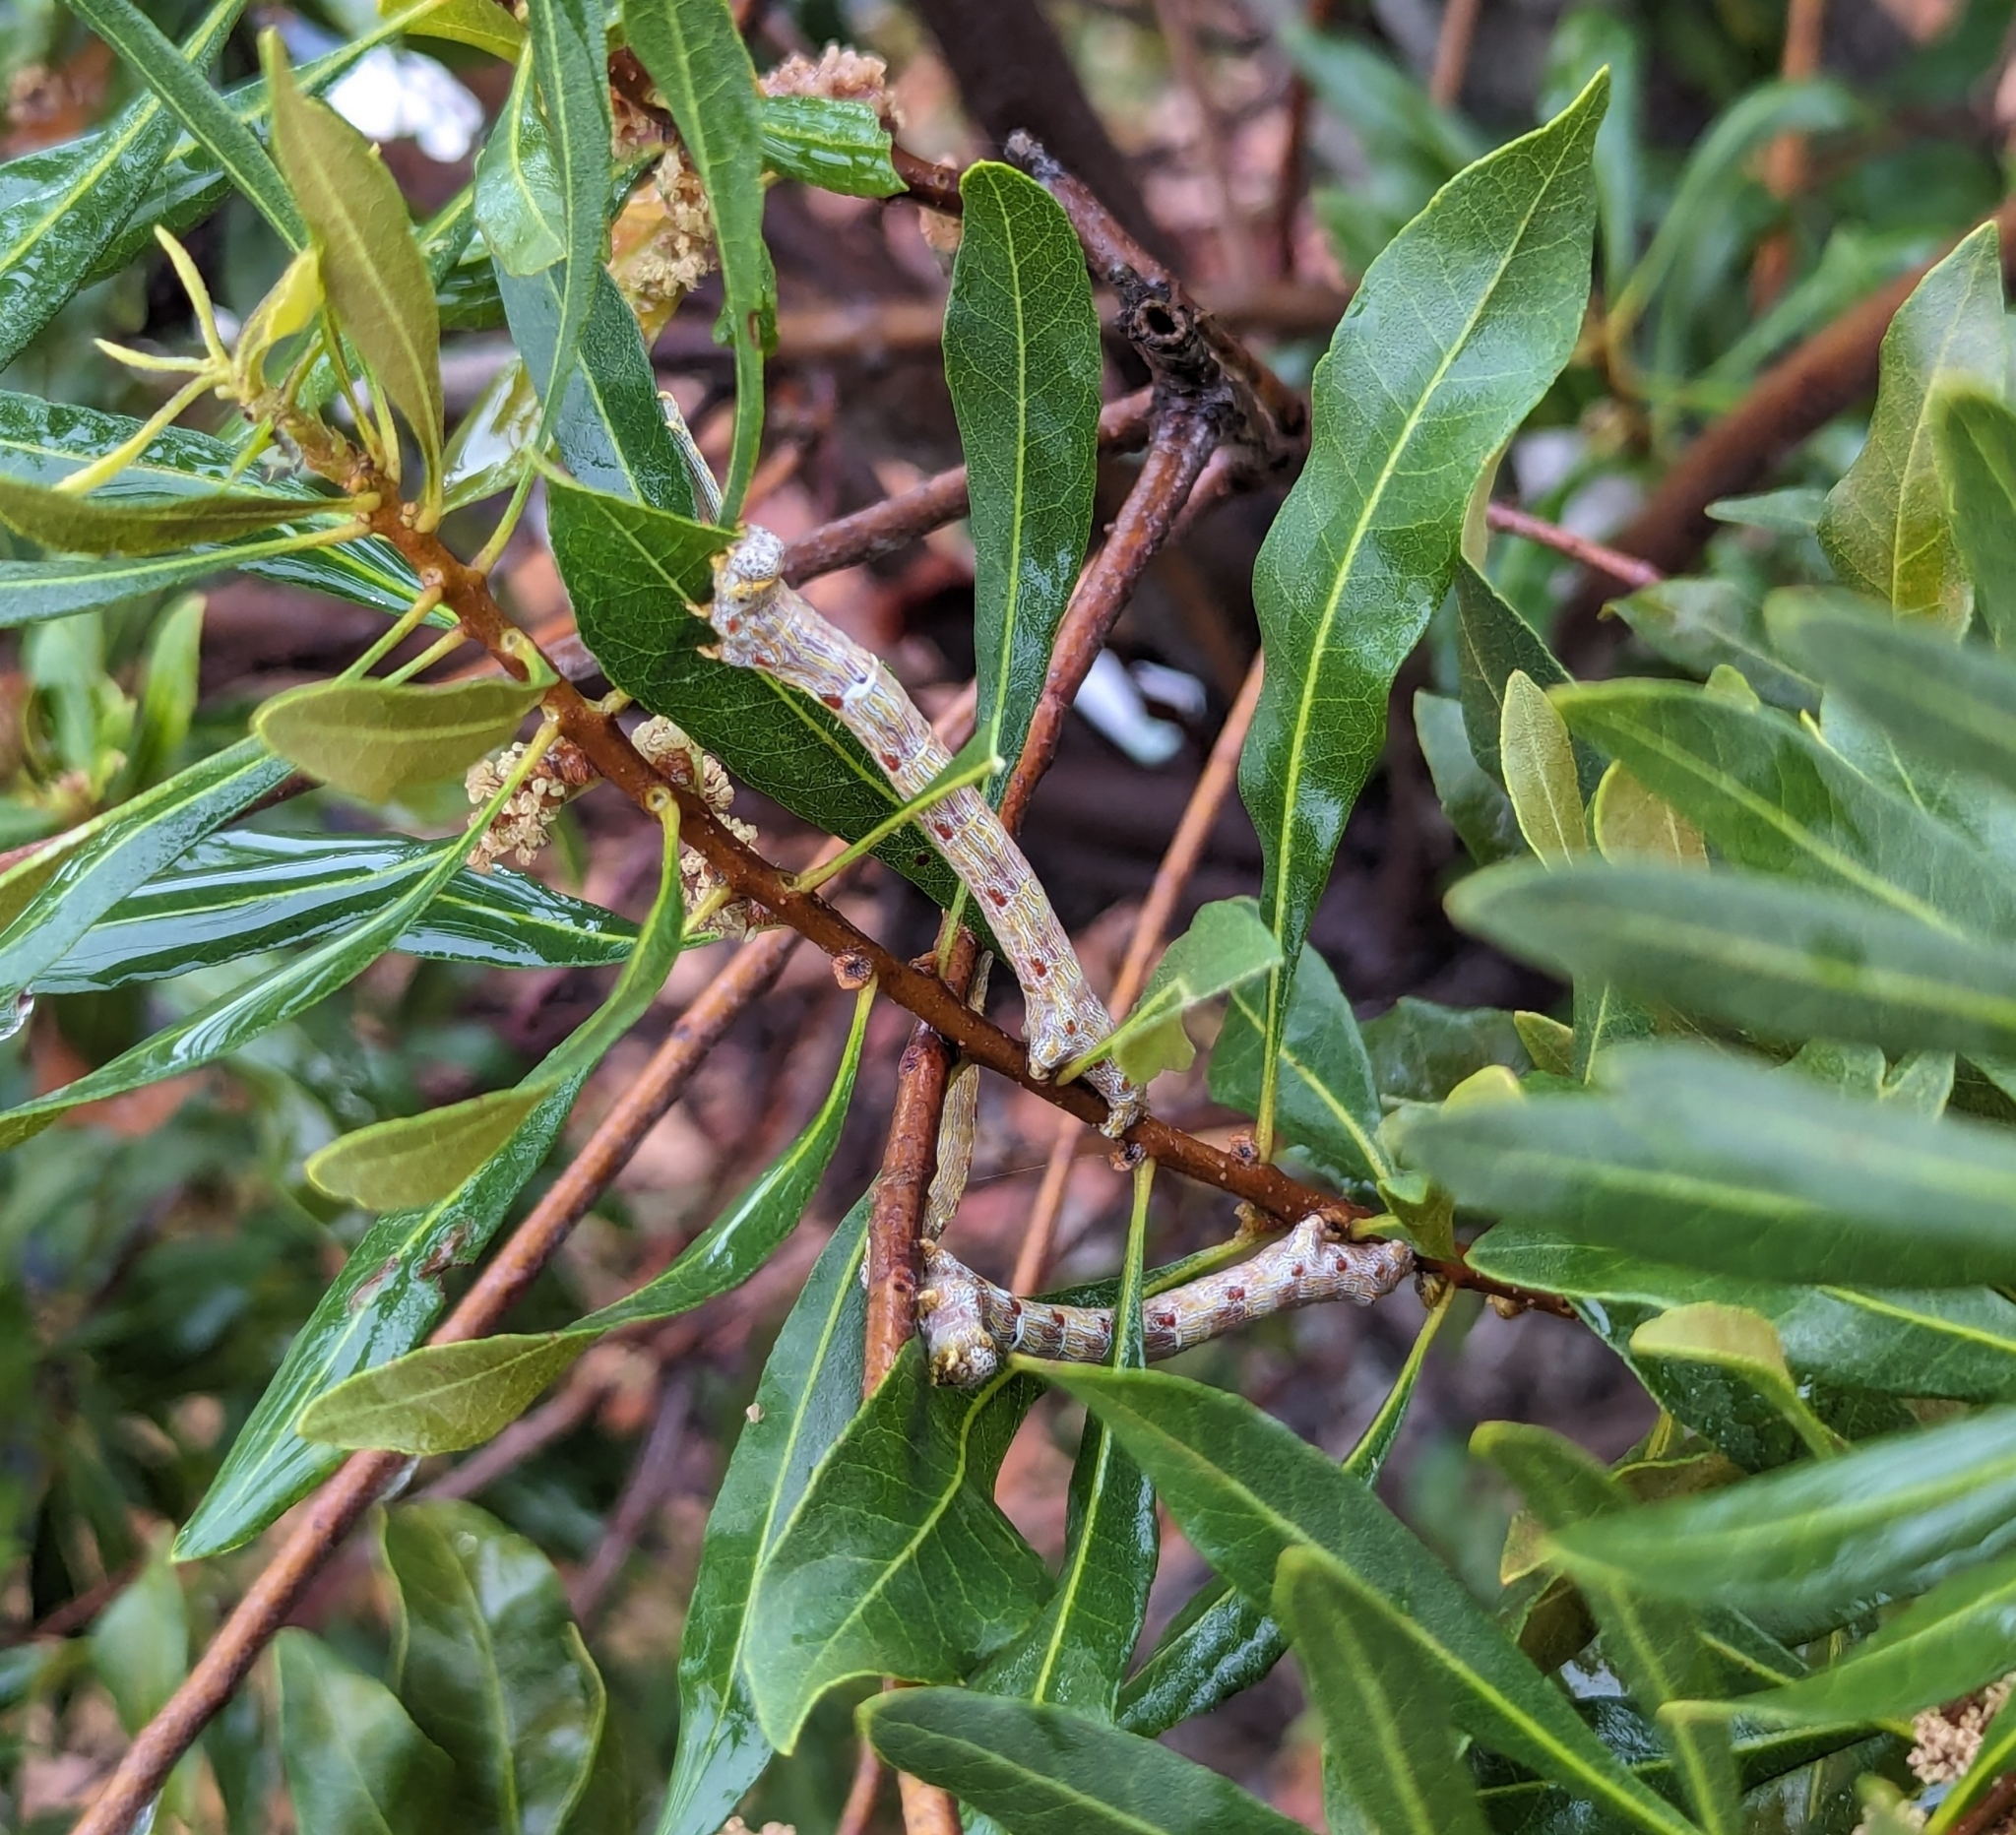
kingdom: Animalia
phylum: Arthropoda
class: Insecta
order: Lepidoptera
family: Geometridae
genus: Lycia
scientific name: Lycia ypsilon
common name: Wooly gray
